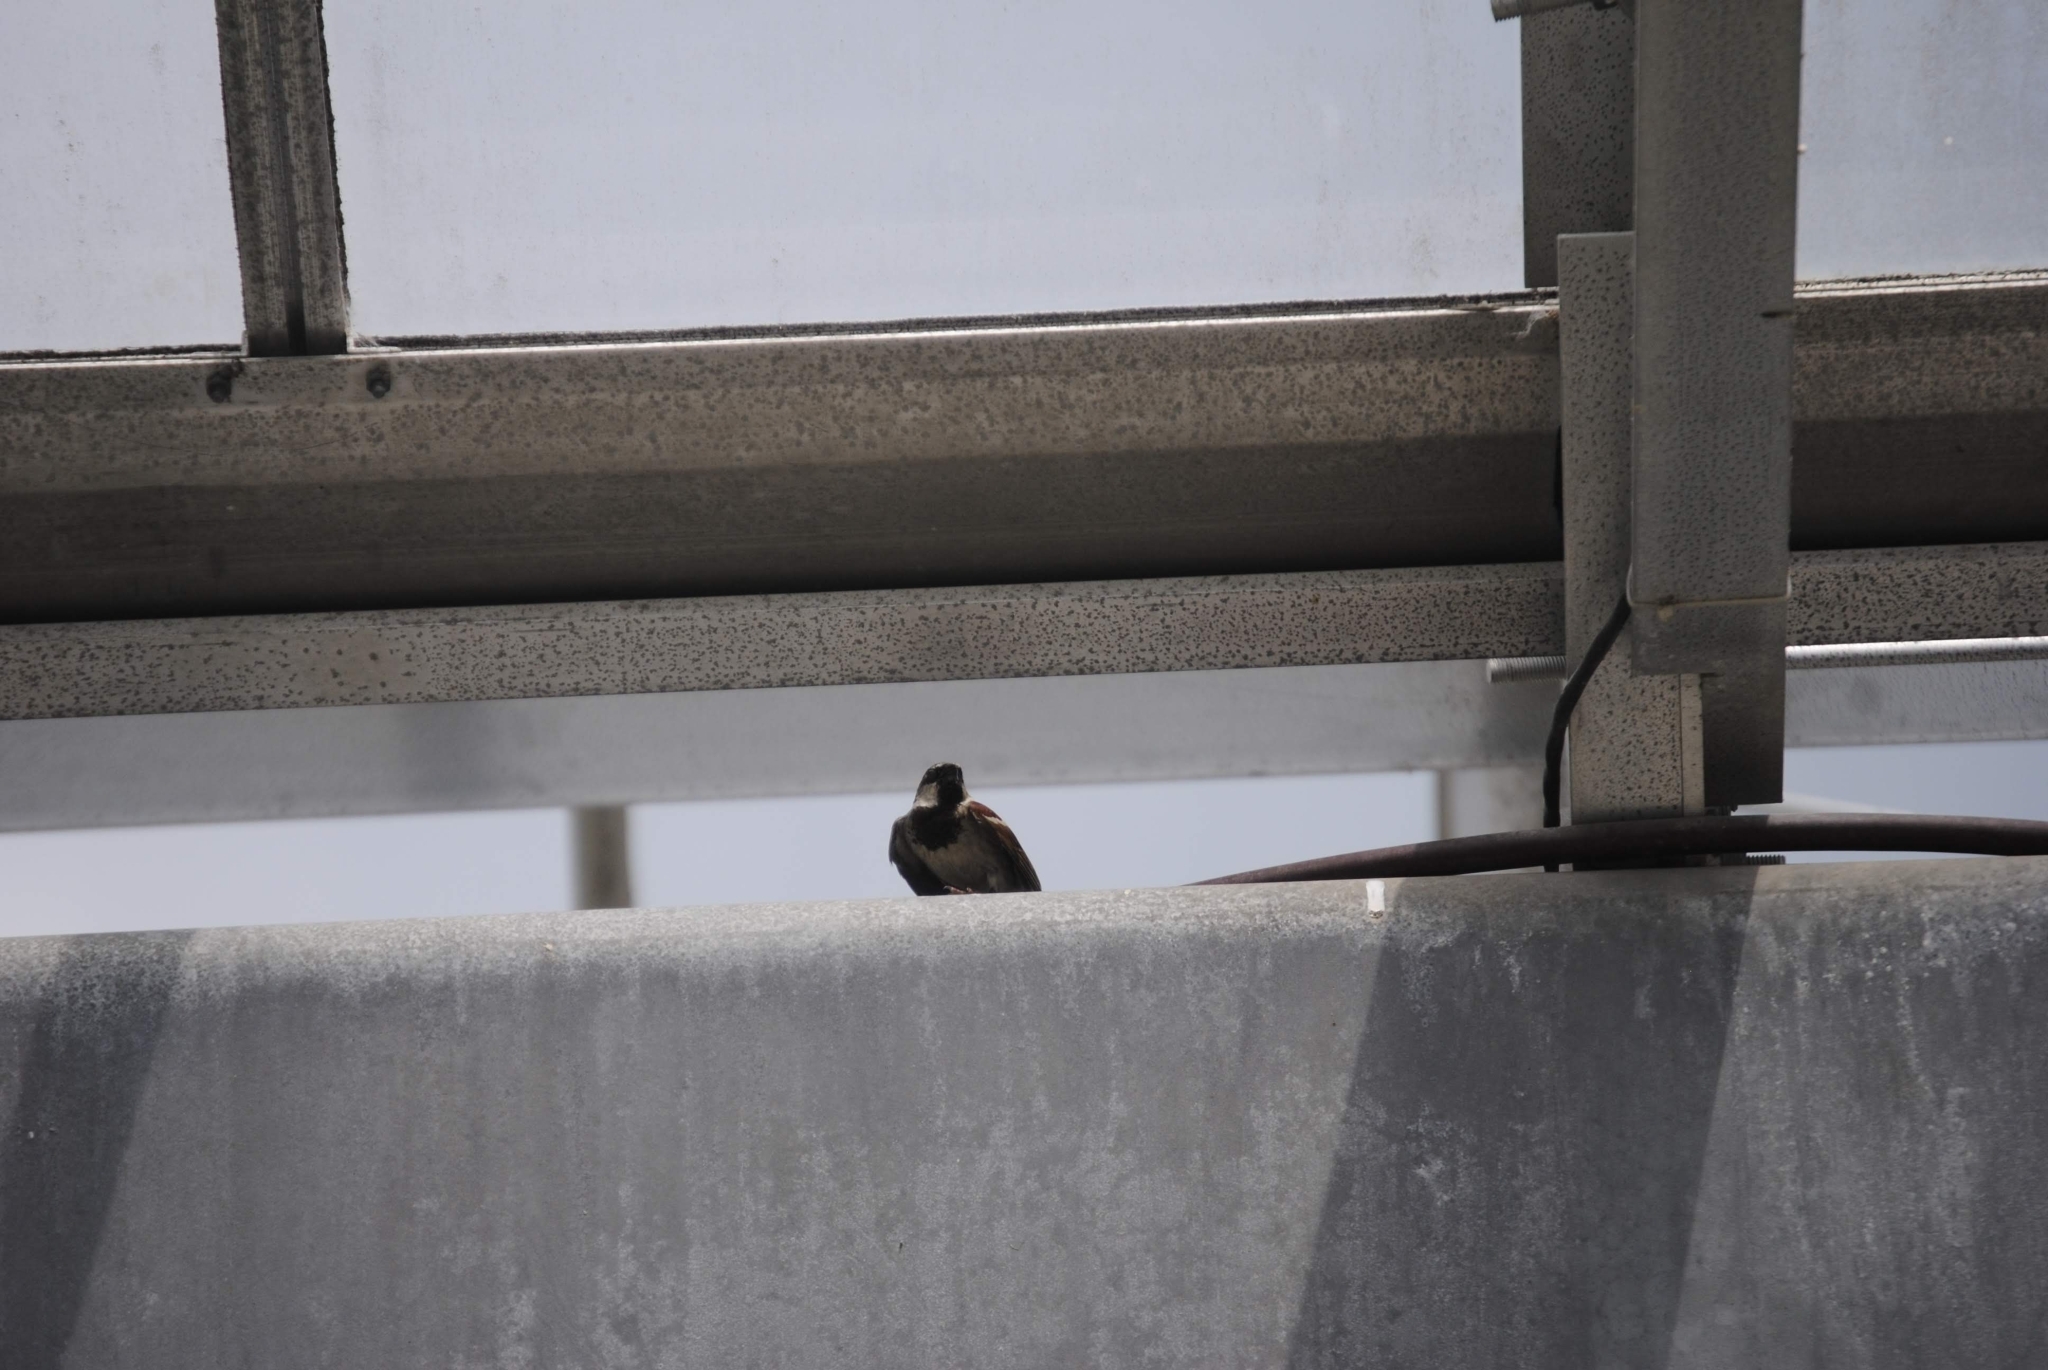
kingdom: Animalia
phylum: Chordata
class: Aves
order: Passeriformes
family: Passeridae
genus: Passer
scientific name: Passer domesticus
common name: House sparrow
